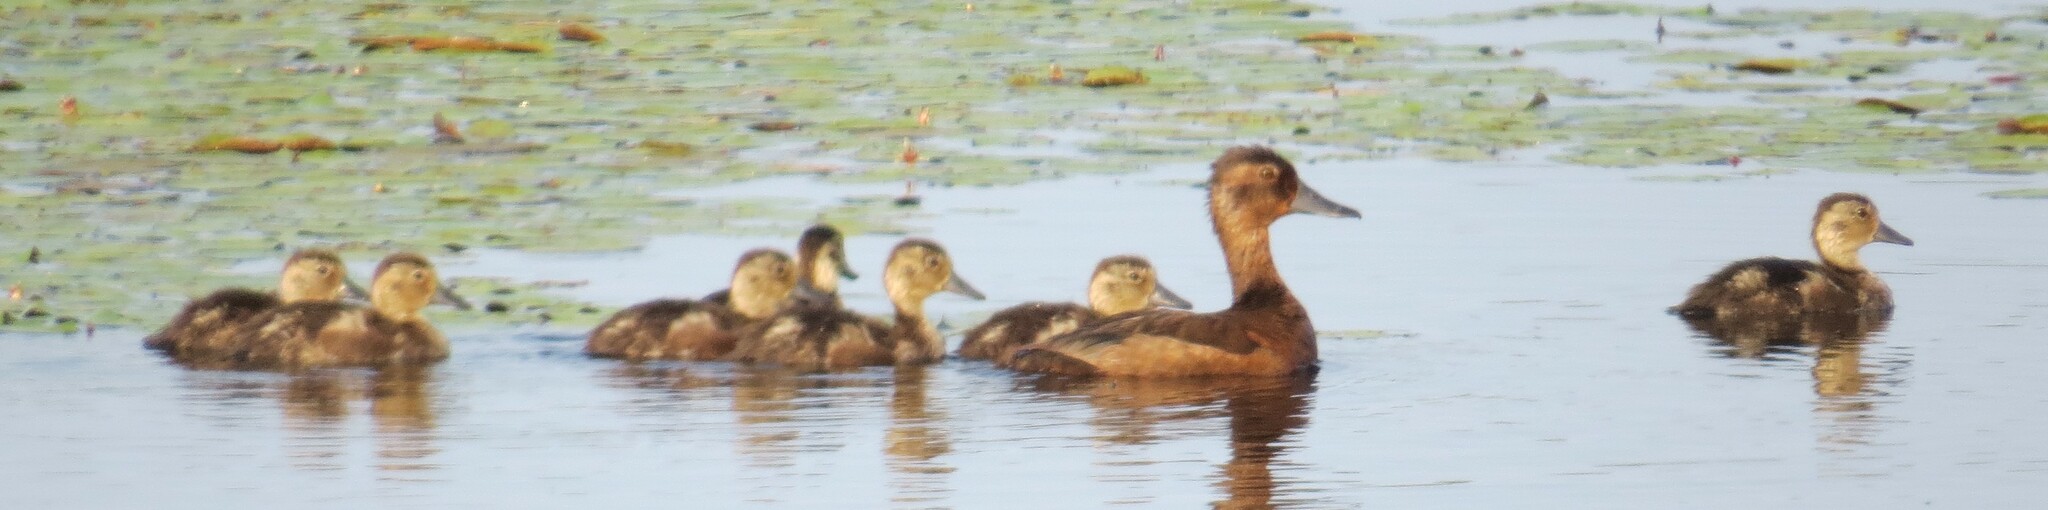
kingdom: Animalia
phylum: Chordata
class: Aves
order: Anseriformes
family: Anatidae
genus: Aythya
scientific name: Aythya collaris
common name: Ring-necked duck
